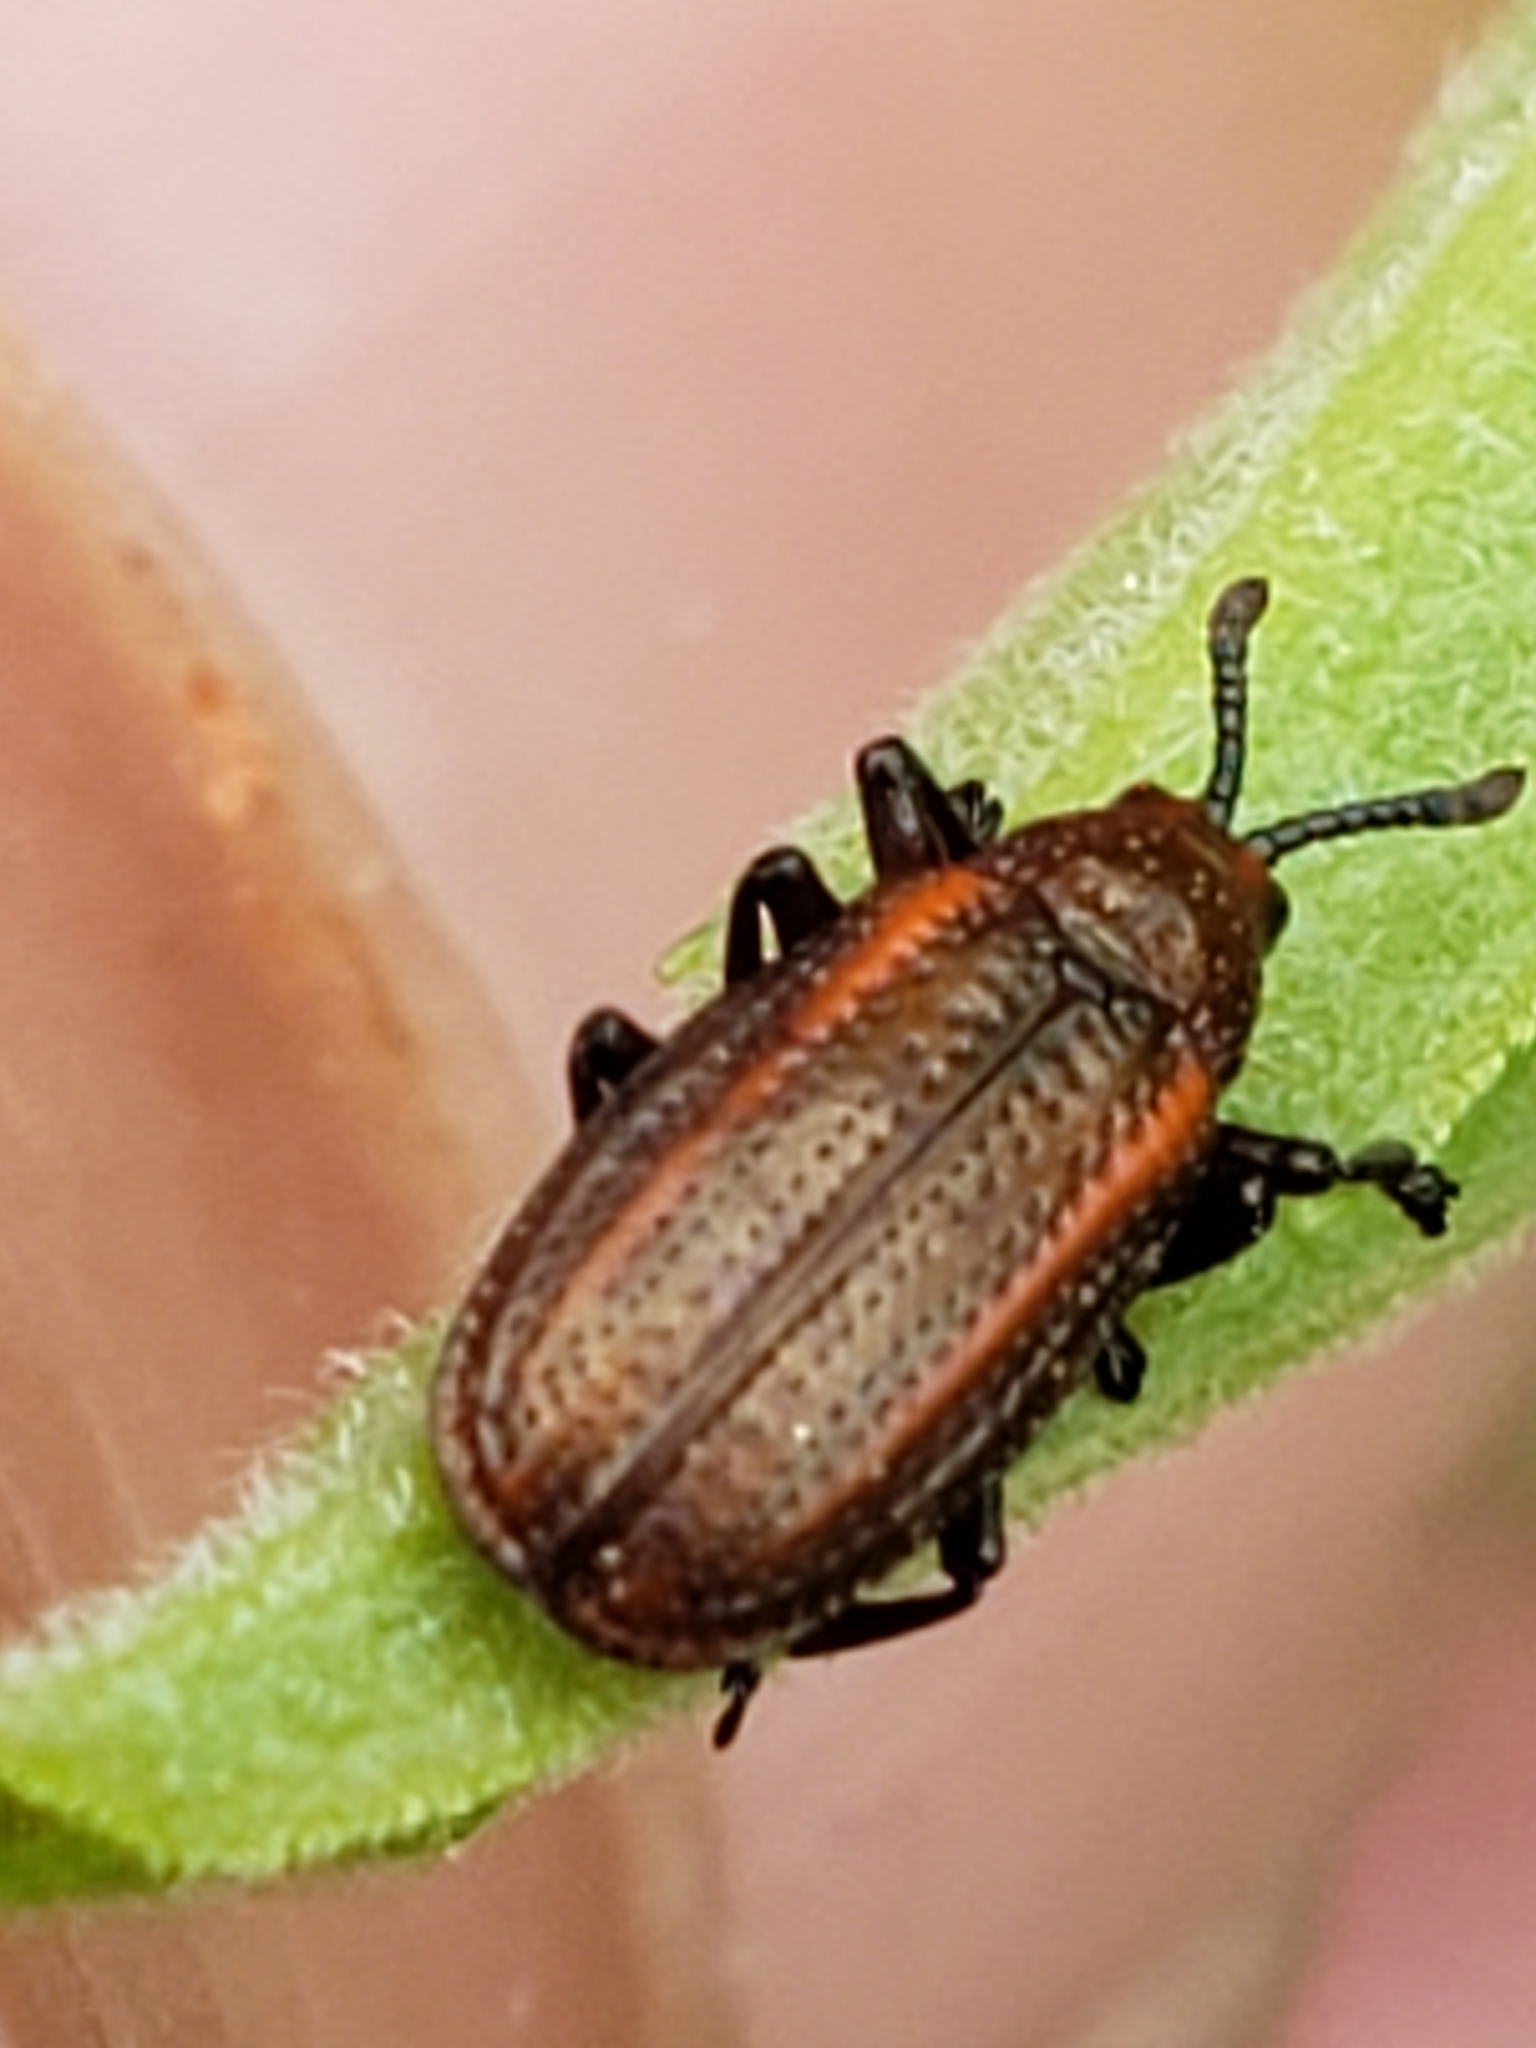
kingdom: Animalia
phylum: Arthropoda
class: Insecta
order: Coleoptera
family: Chrysomelidae
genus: Microrhopala
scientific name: Microrhopala vittata
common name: Goldenrod leaf miner beetle
